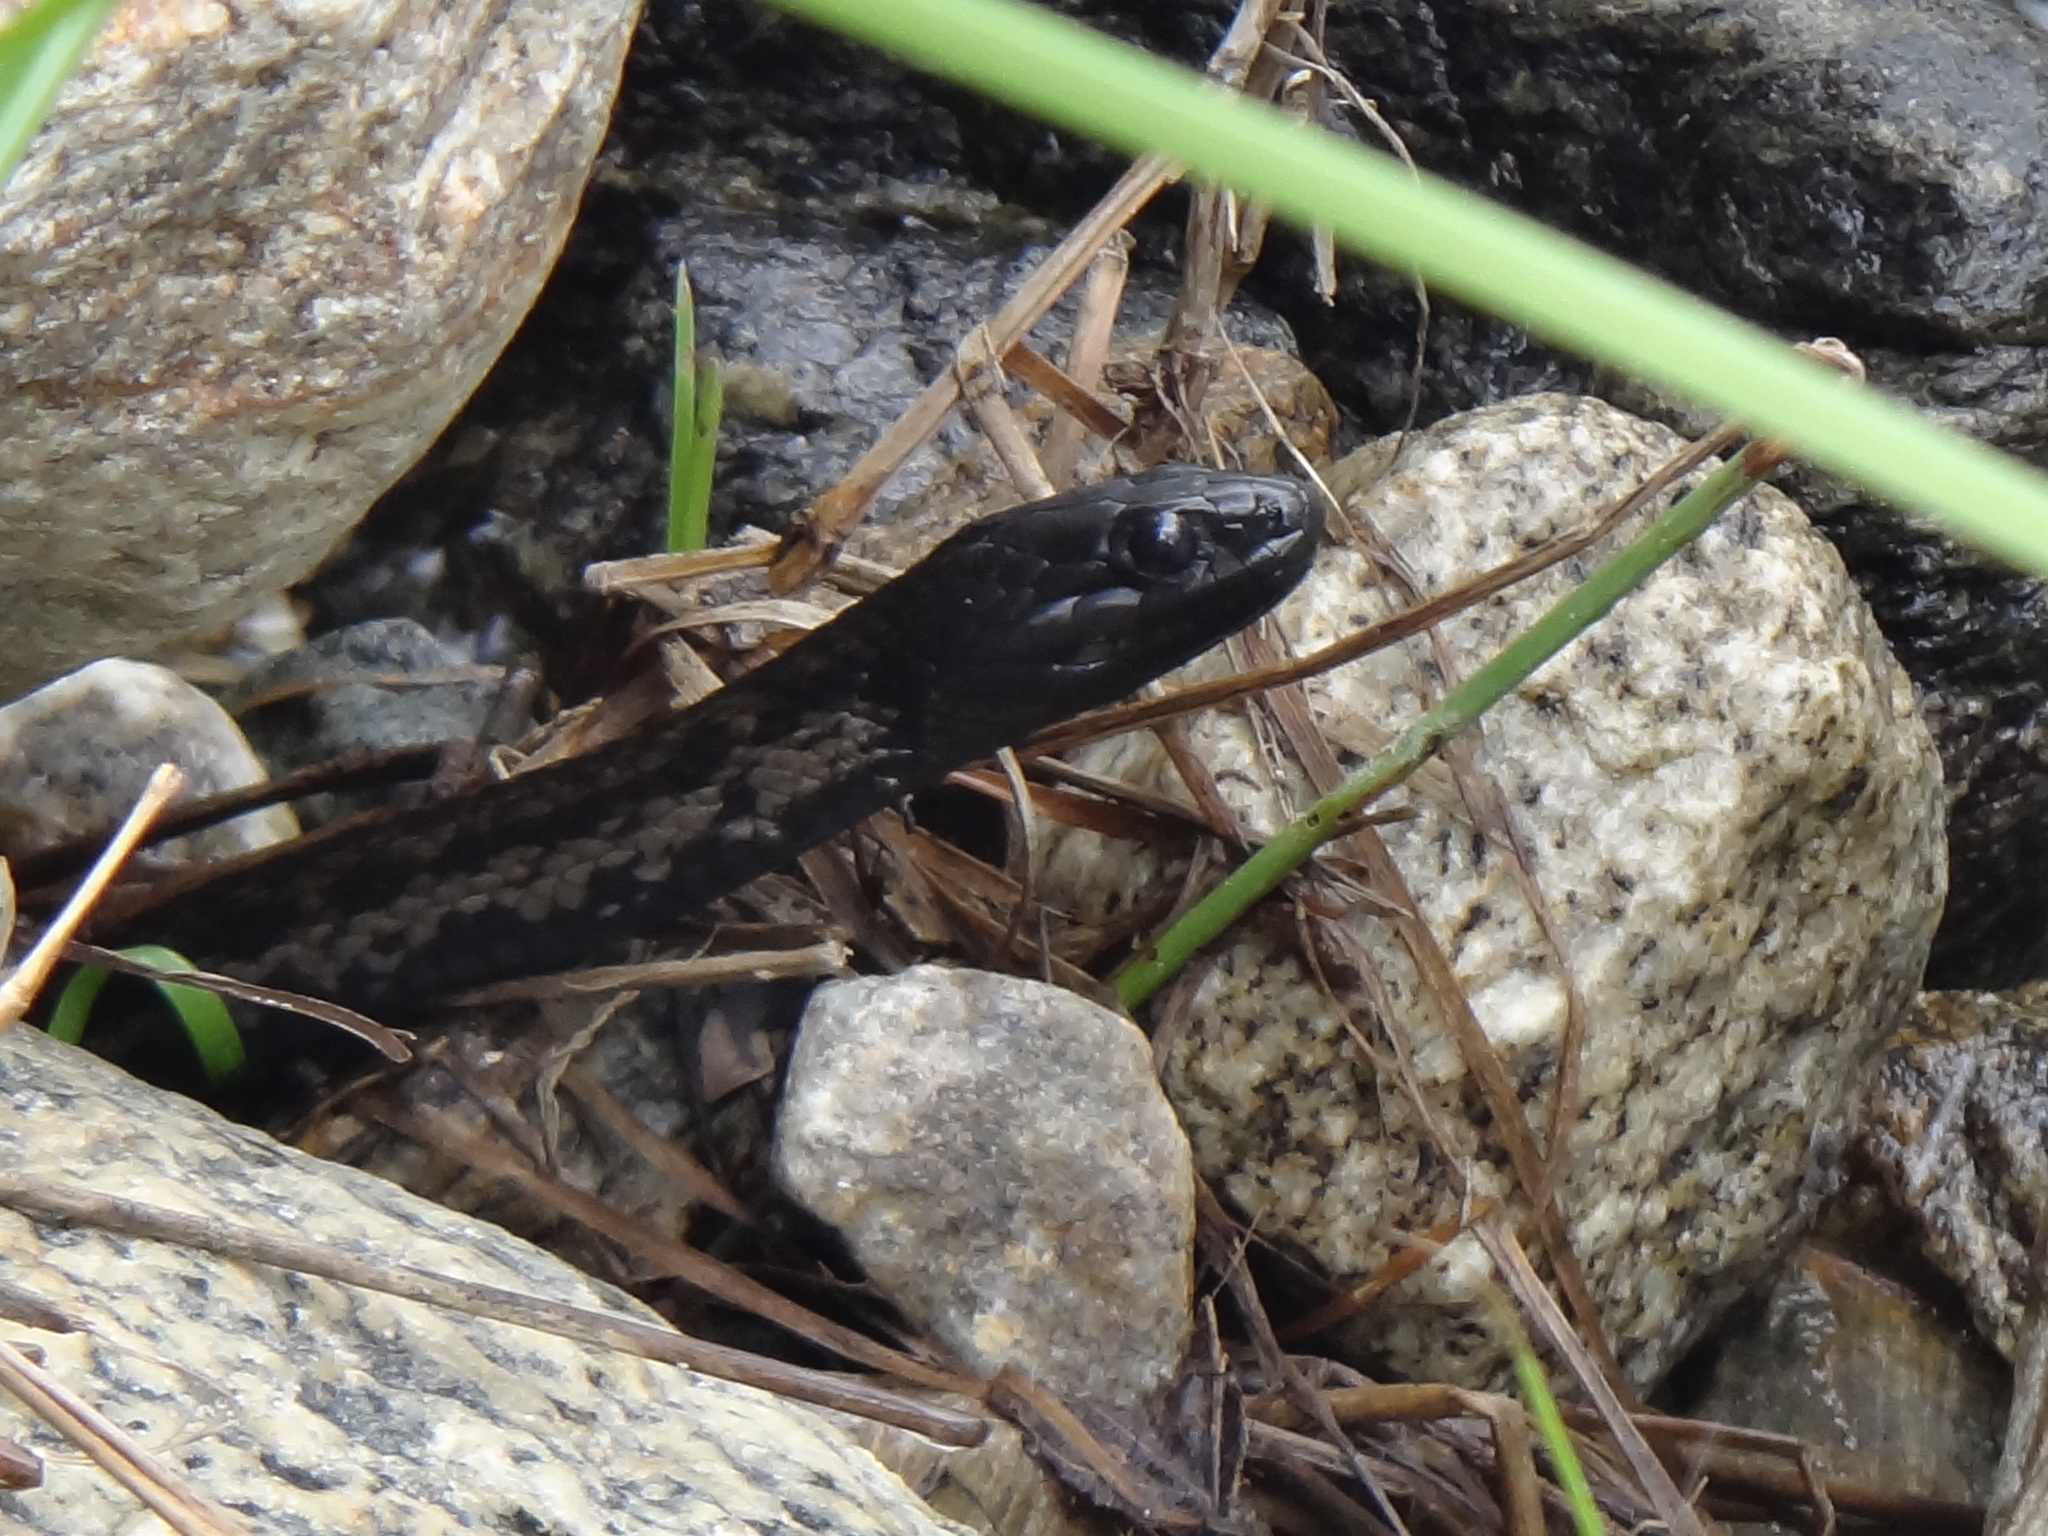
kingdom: Animalia
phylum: Chordata
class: Squamata
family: Colubridae
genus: Thamnophis
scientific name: Thamnophis validus
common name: West coast garter snake
